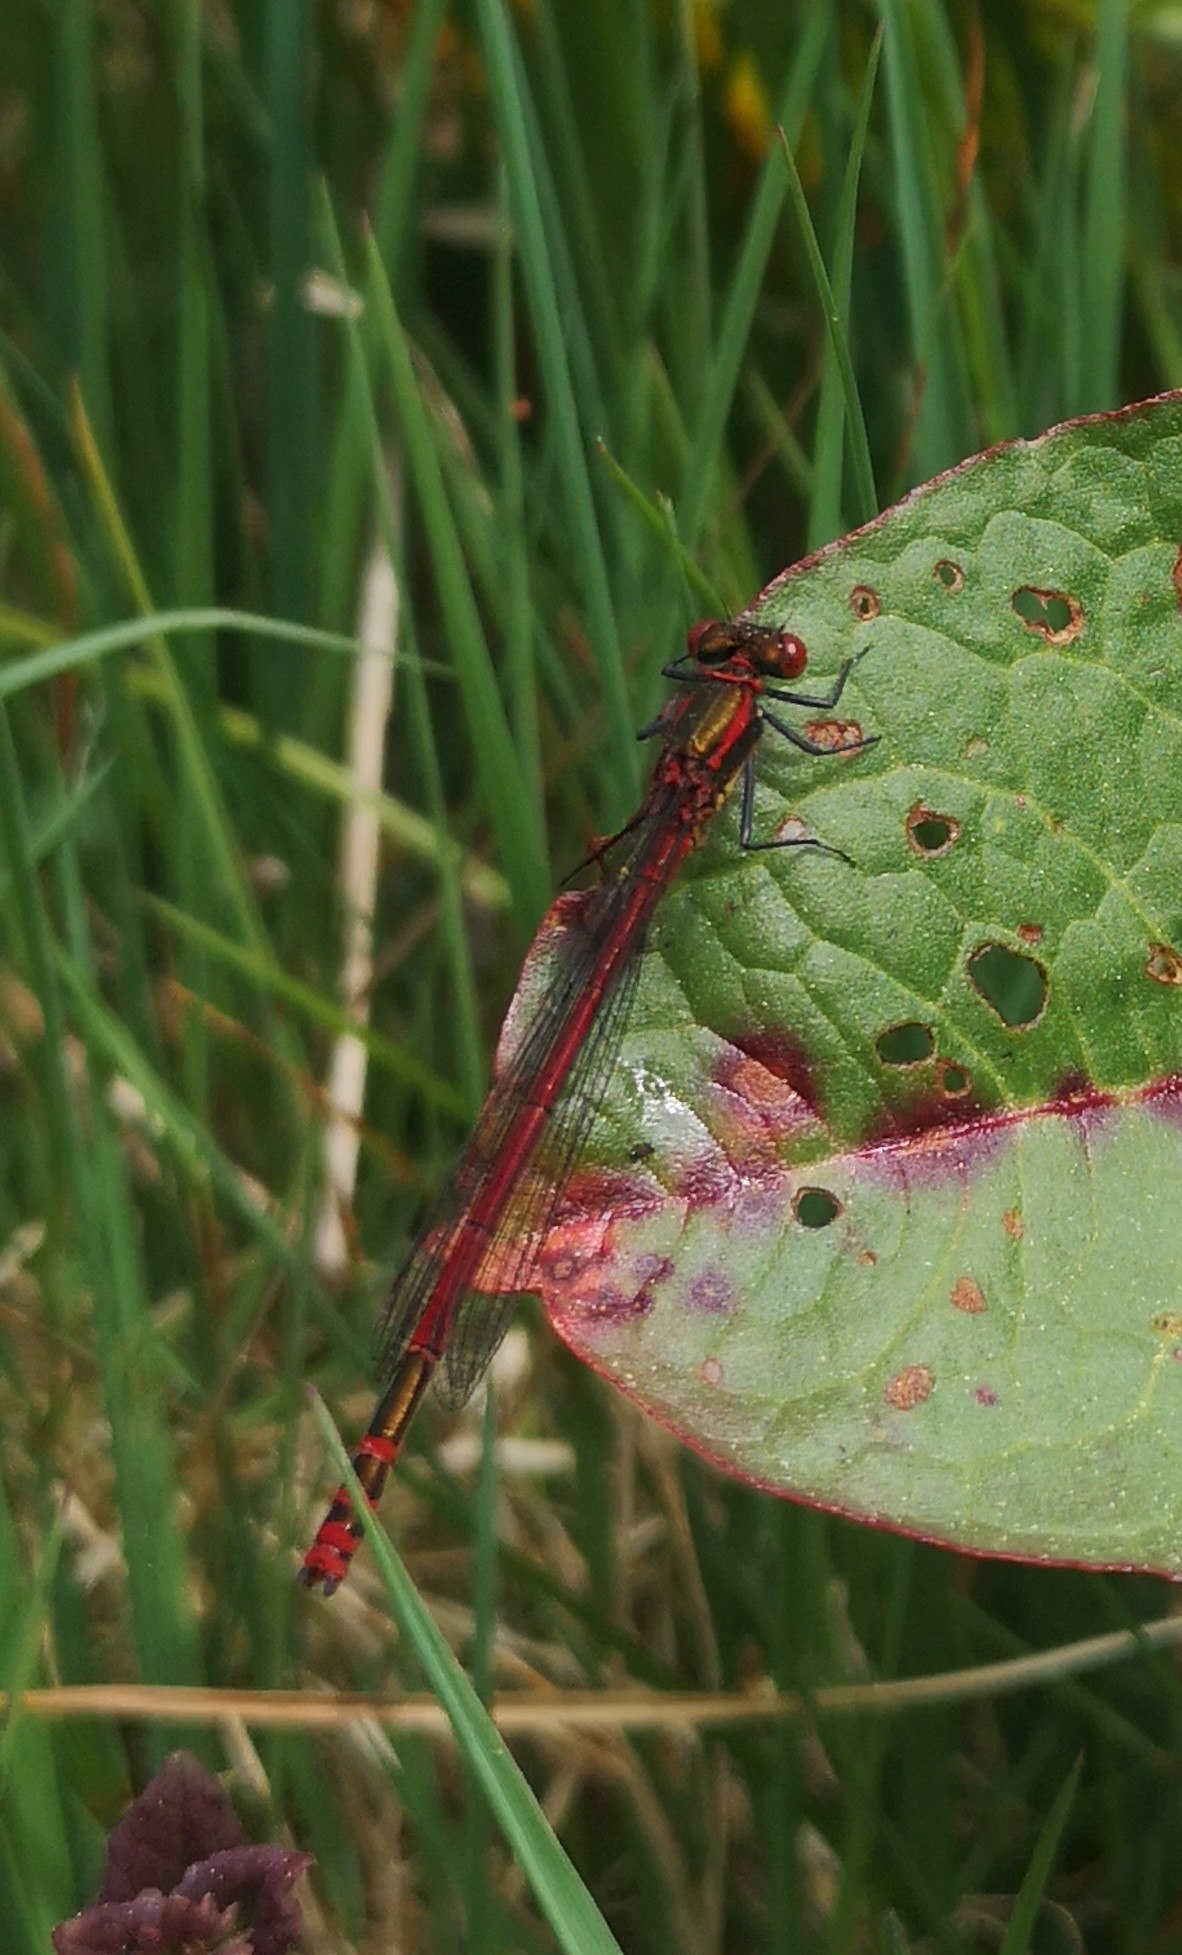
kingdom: Animalia
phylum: Arthropoda
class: Insecta
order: Odonata
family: Coenagrionidae
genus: Pyrrhosoma
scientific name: Pyrrhosoma nymphula
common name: Large red damsel
